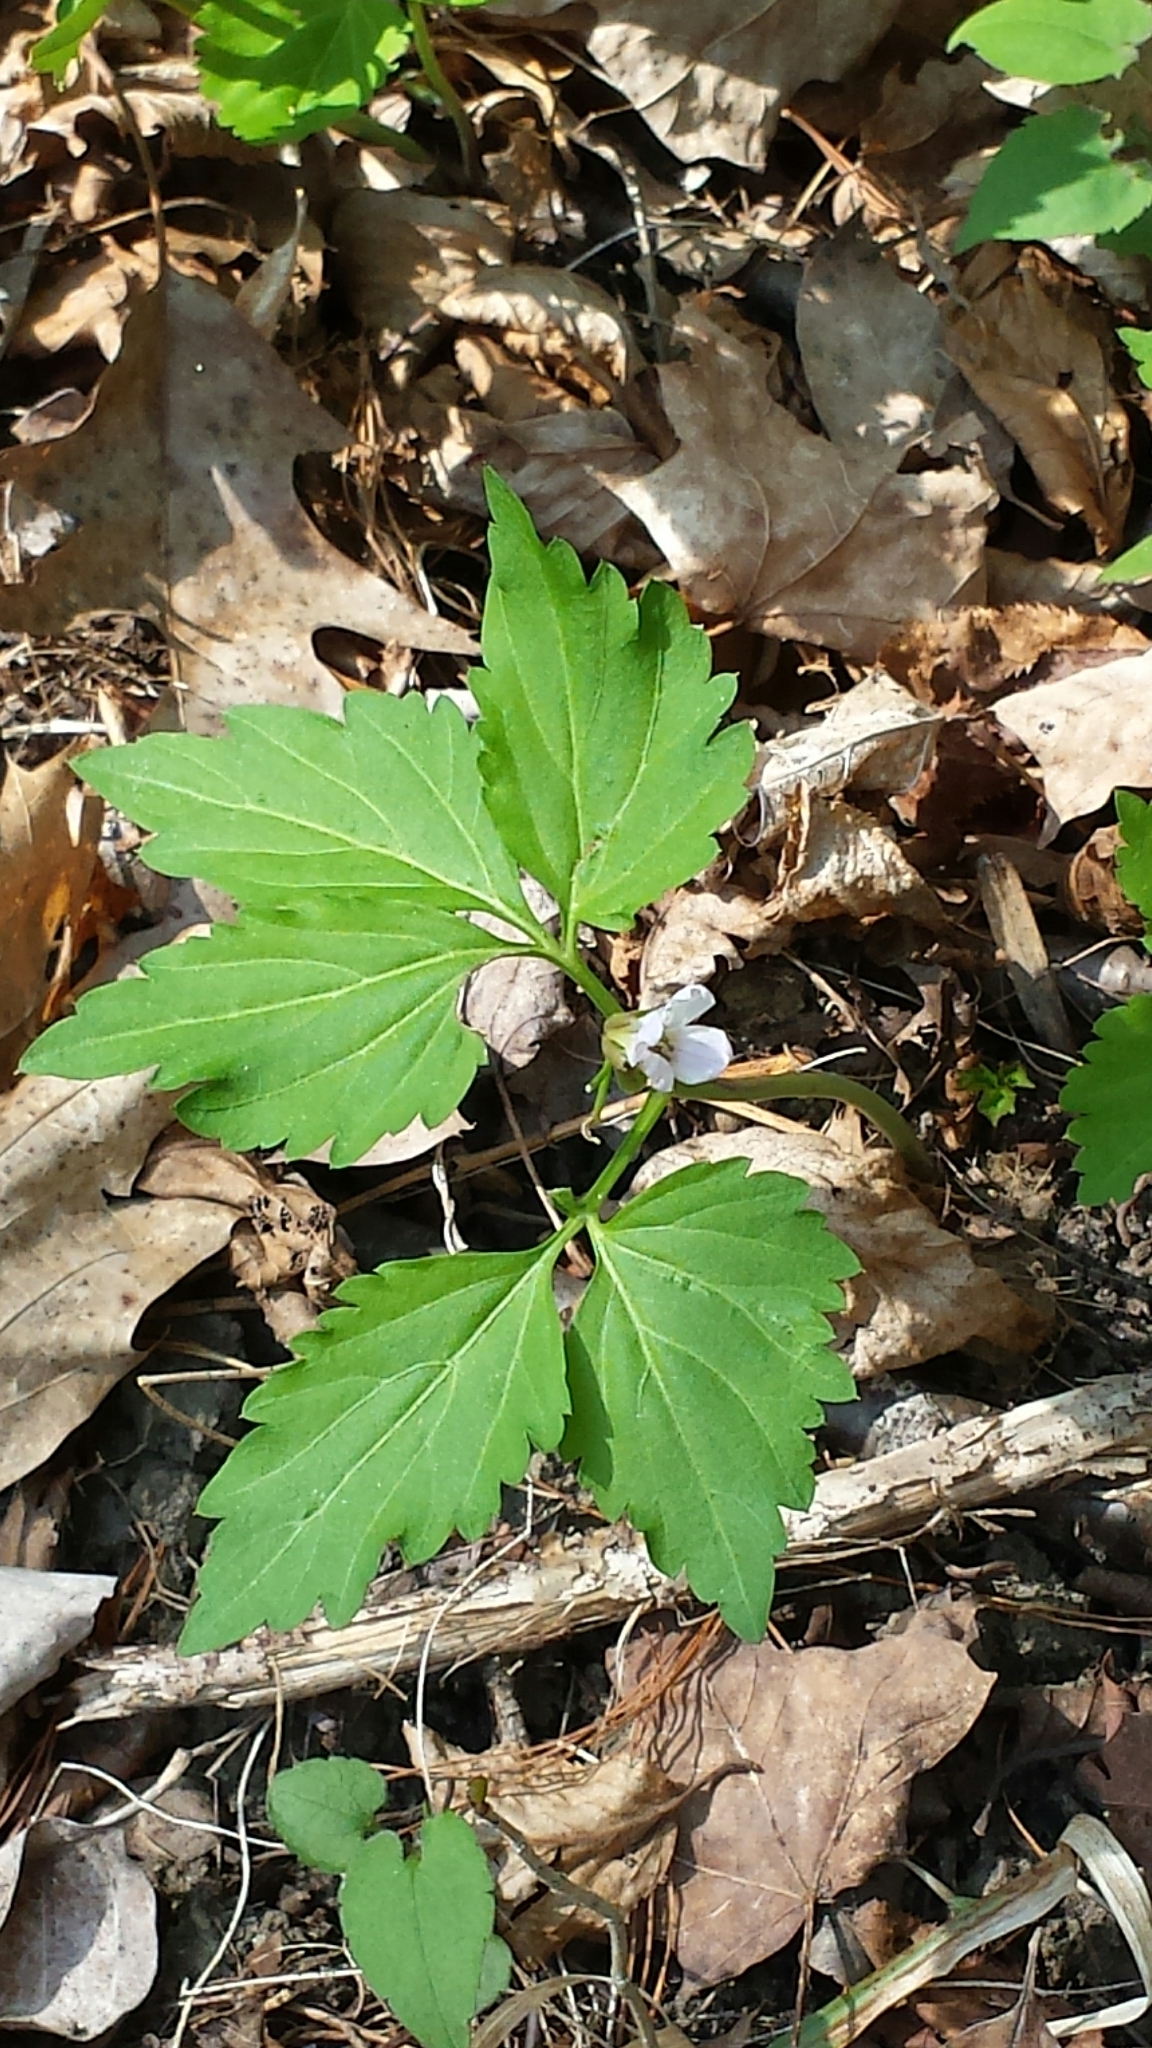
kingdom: Plantae
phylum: Tracheophyta
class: Magnoliopsida
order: Brassicales
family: Brassicaceae
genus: Cardamine
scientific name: Cardamine diphylla
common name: Broad-leaved toothwort
